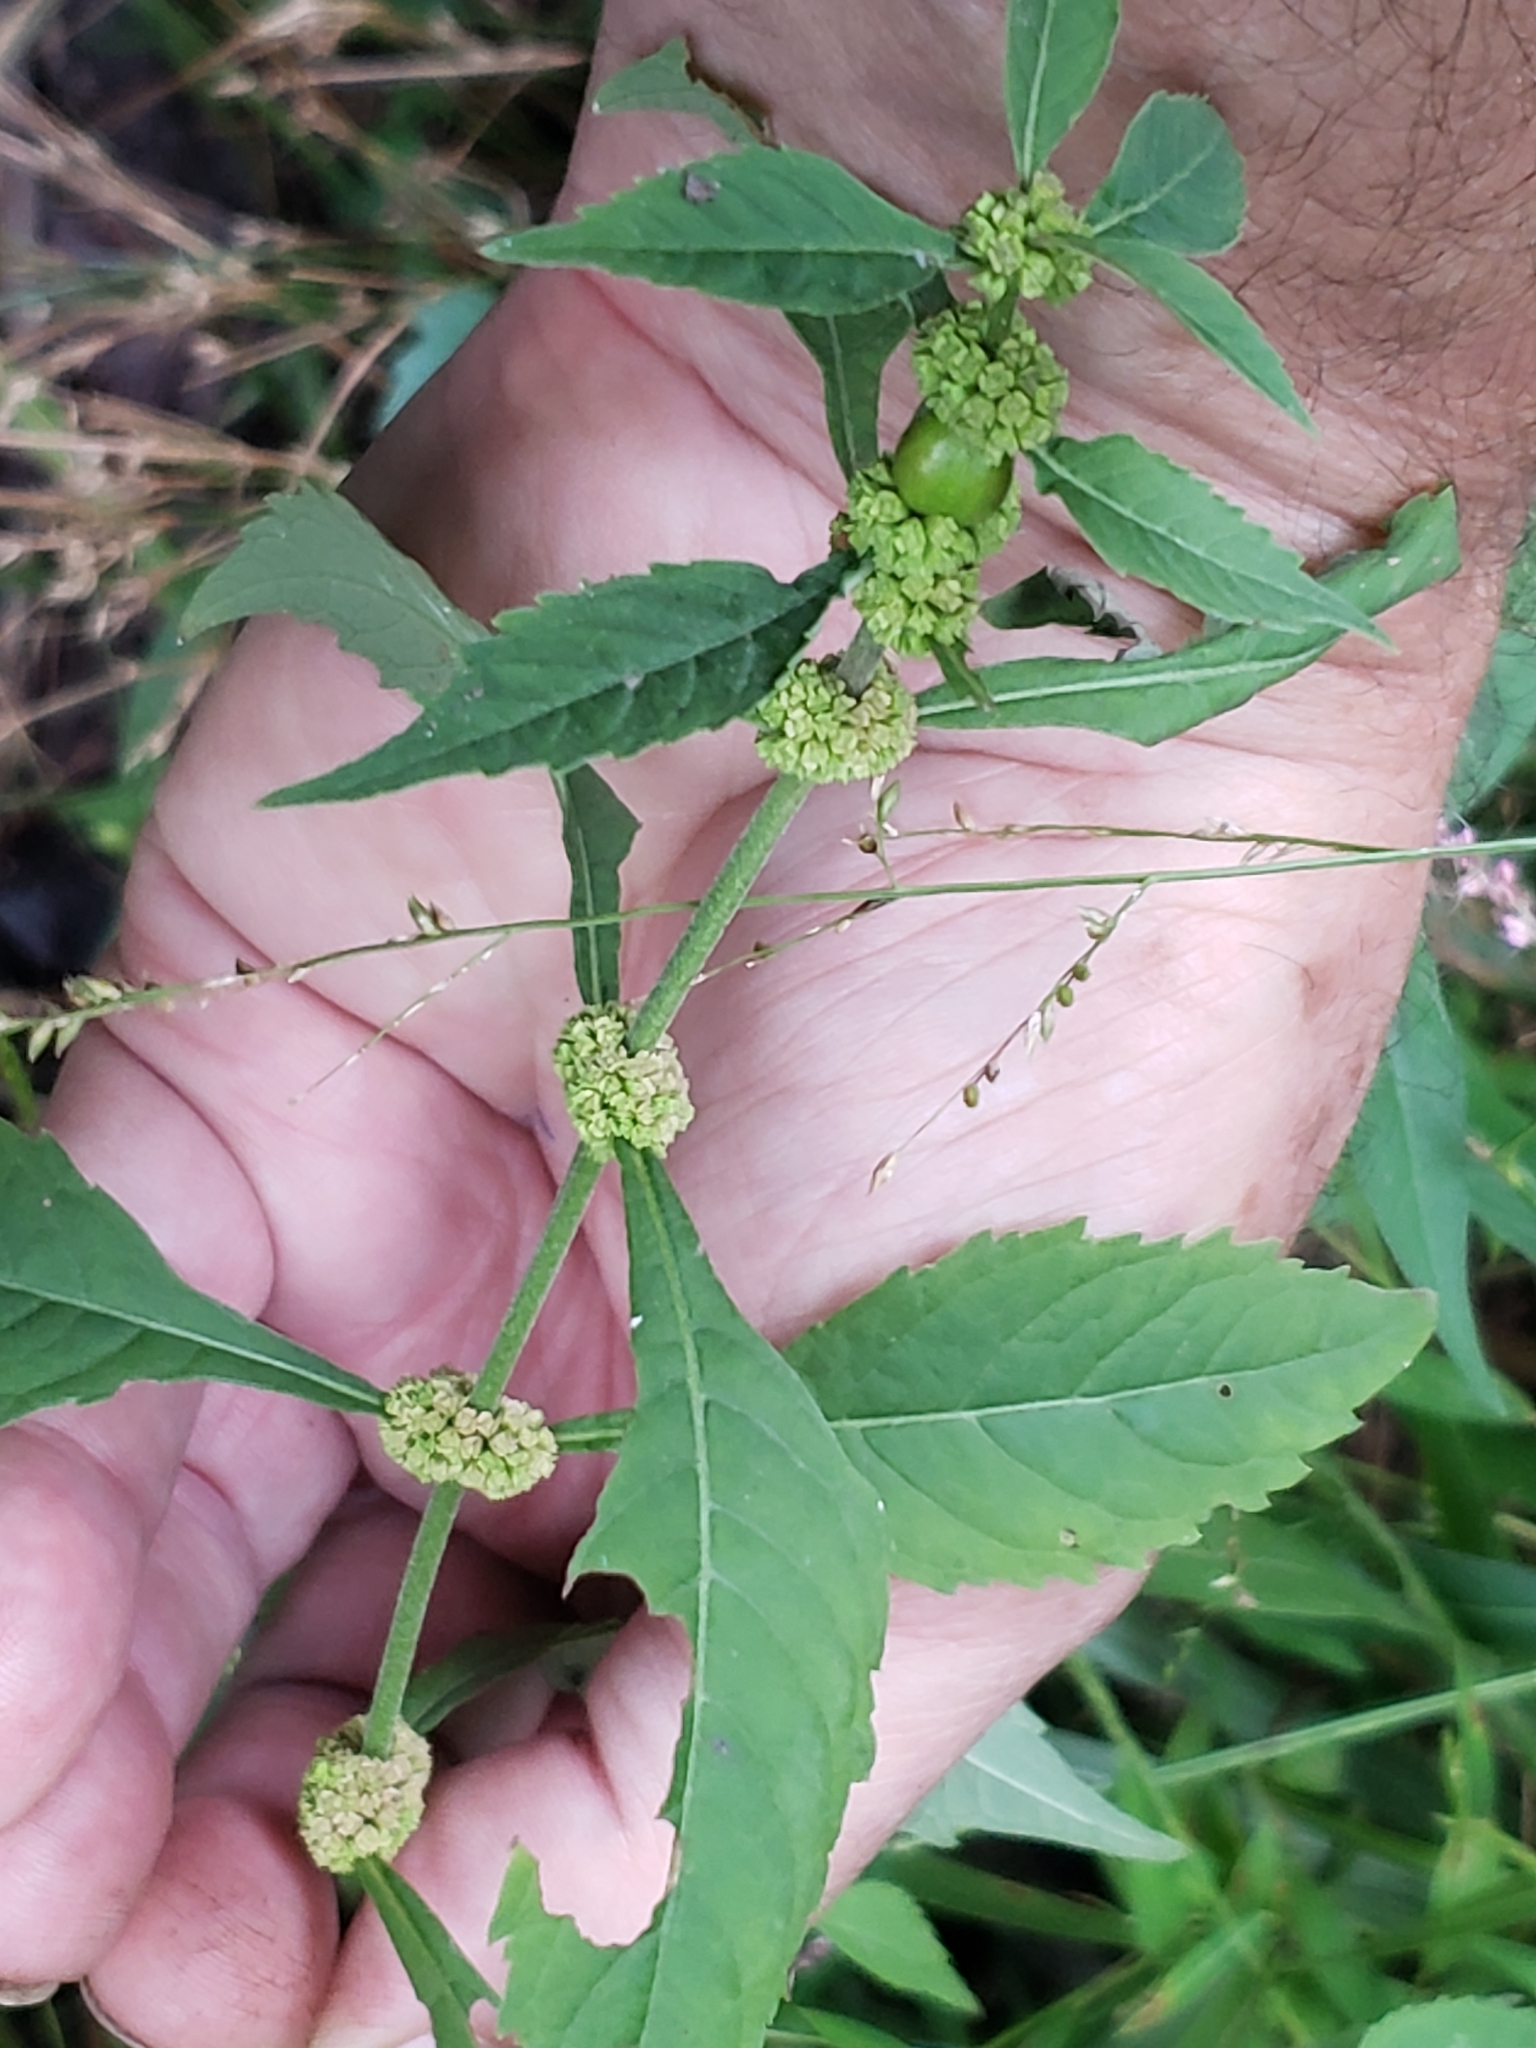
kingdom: Plantae
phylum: Tracheophyta
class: Magnoliopsida
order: Lamiales
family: Lamiaceae
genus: Lycopus
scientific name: Lycopus virginicus
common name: Bugleweed
